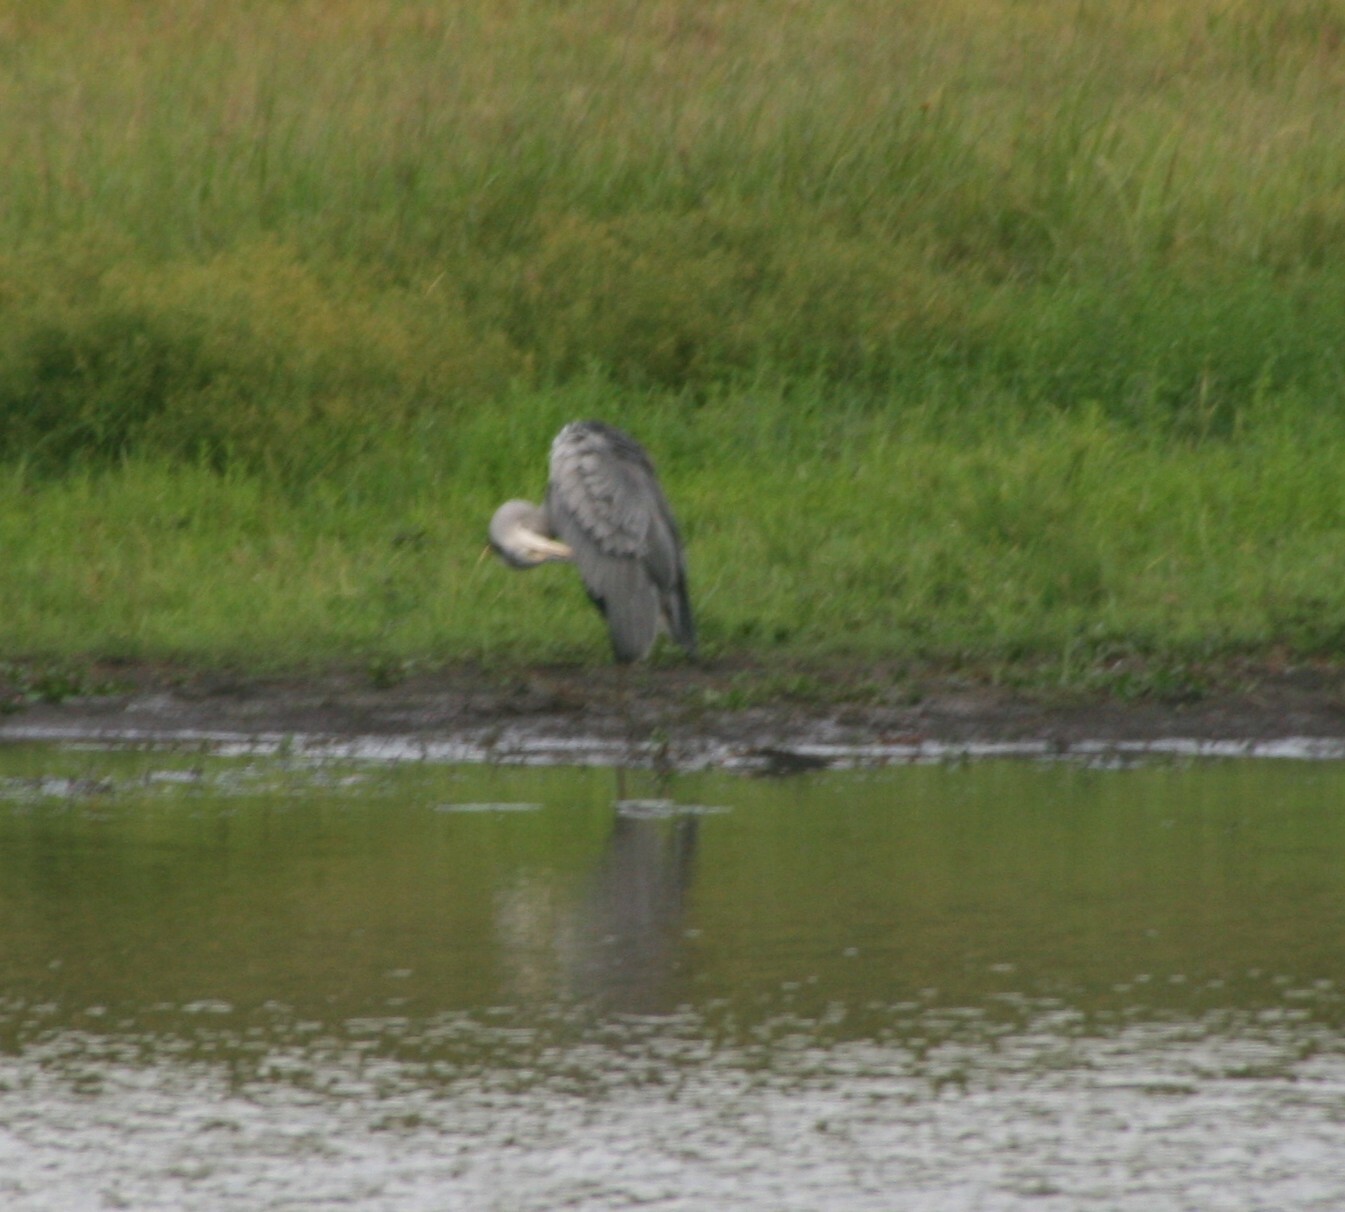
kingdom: Animalia
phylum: Chordata
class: Aves
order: Pelecaniformes
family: Ardeidae
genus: Ardea
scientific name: Ardea cinerea
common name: Grey heron
